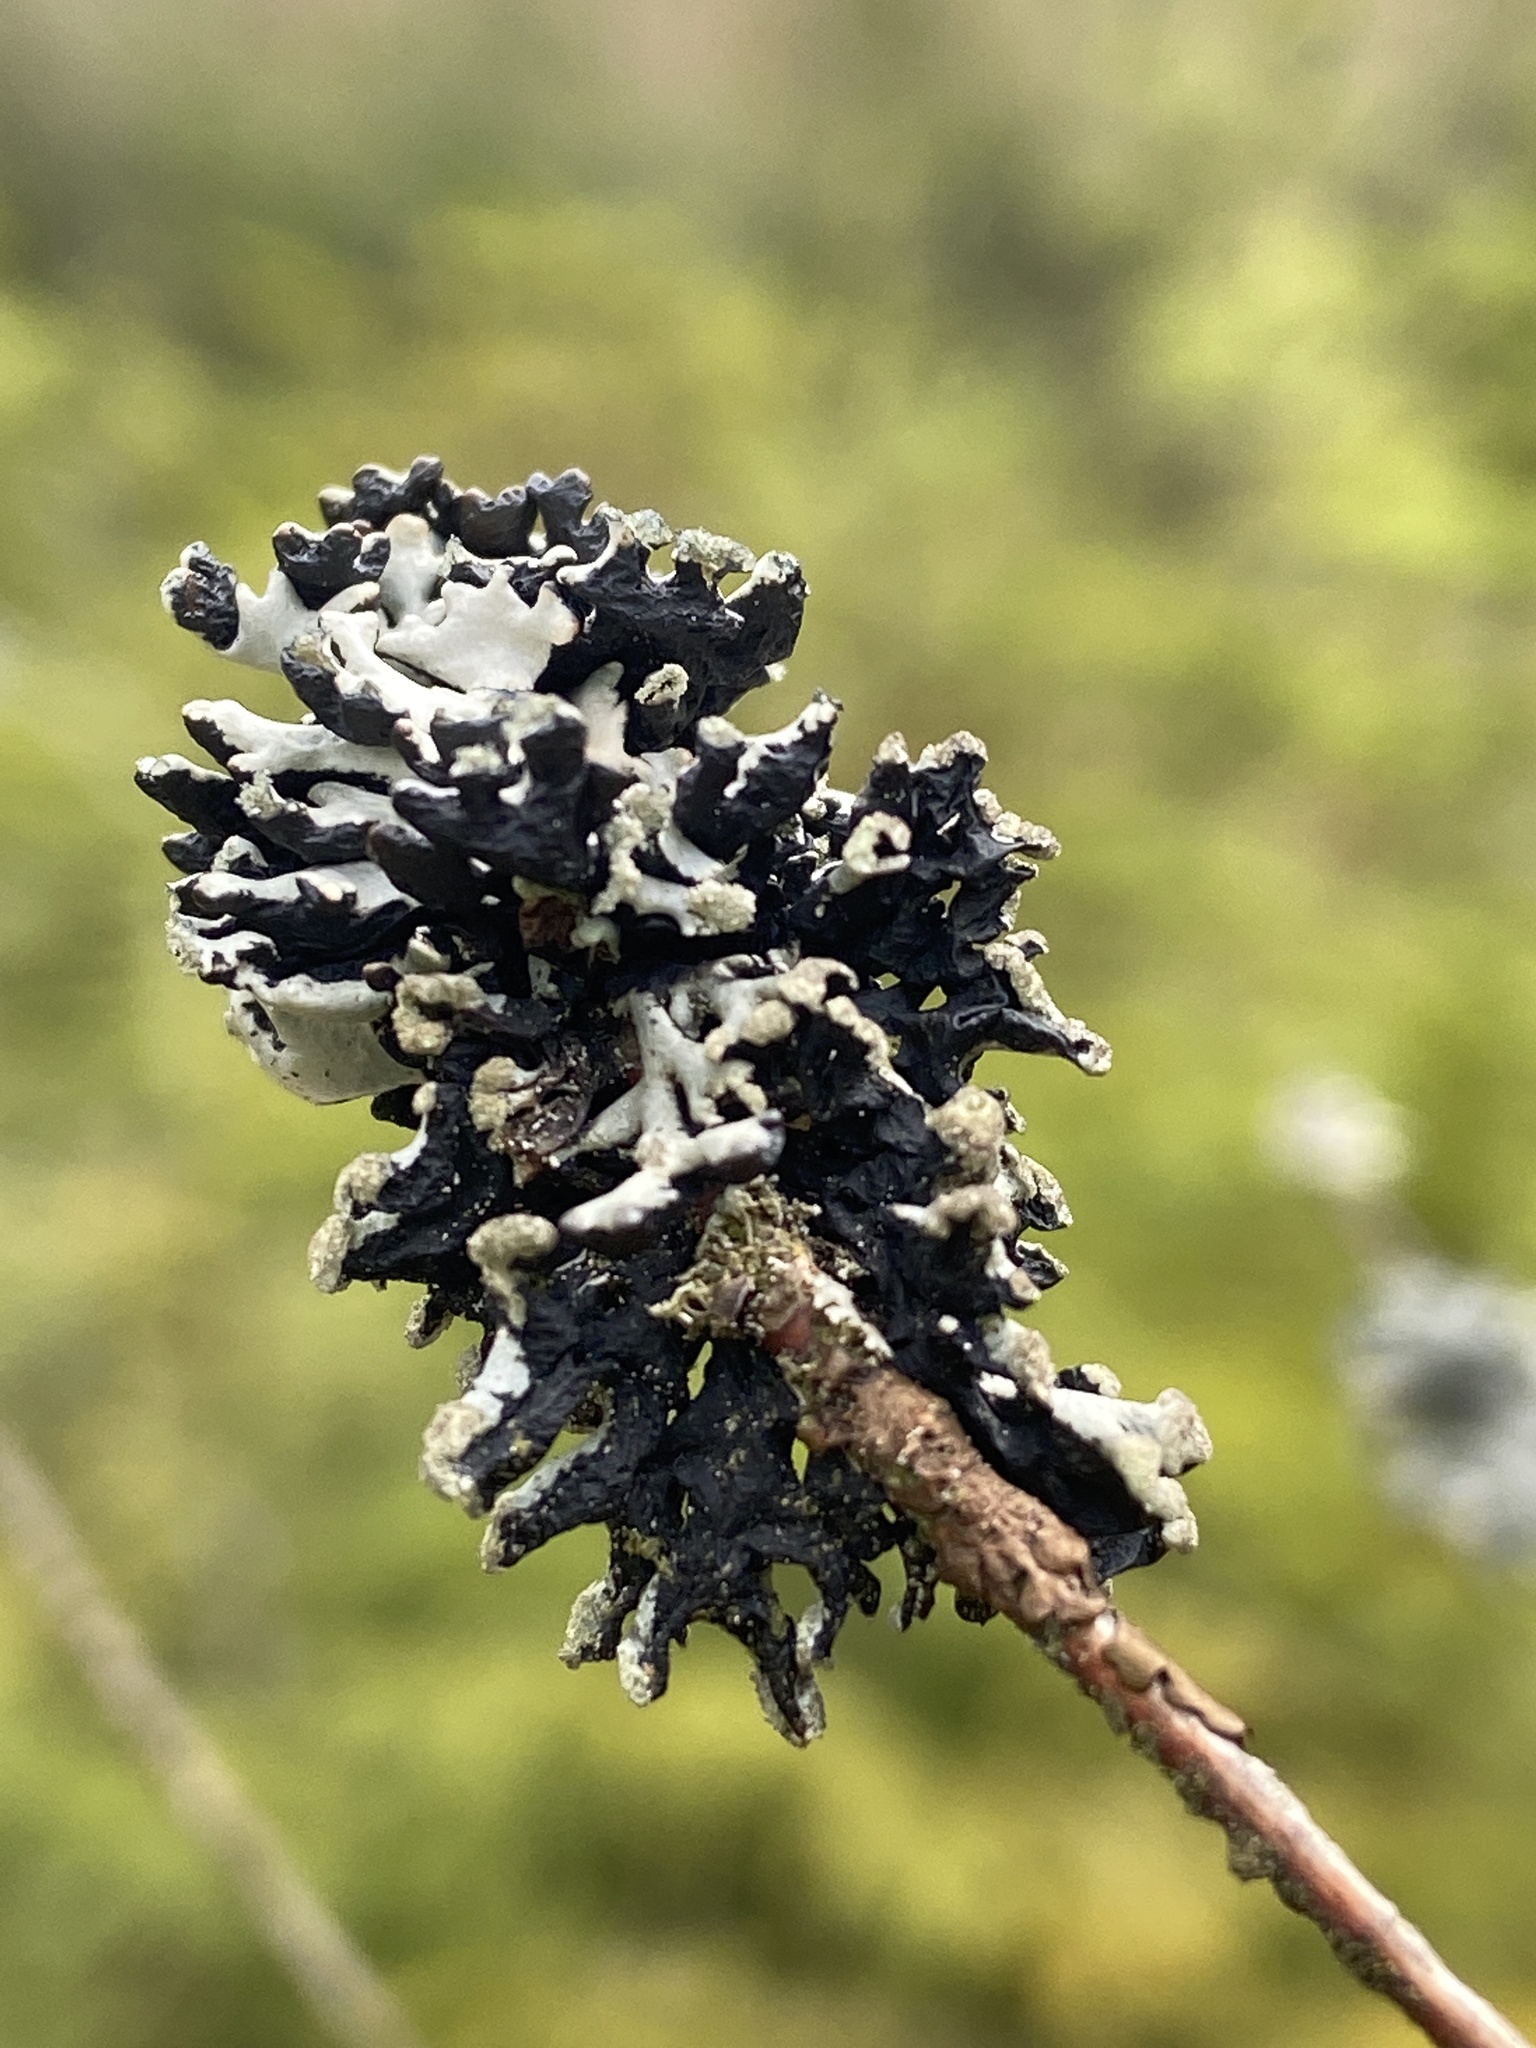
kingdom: Fungi
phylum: Ascomycota
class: Lecanoromycetes
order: Lecanorales
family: Parmeliaceae
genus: Pseudevernia
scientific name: Pseudevernia furfuracea
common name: Tree moss
